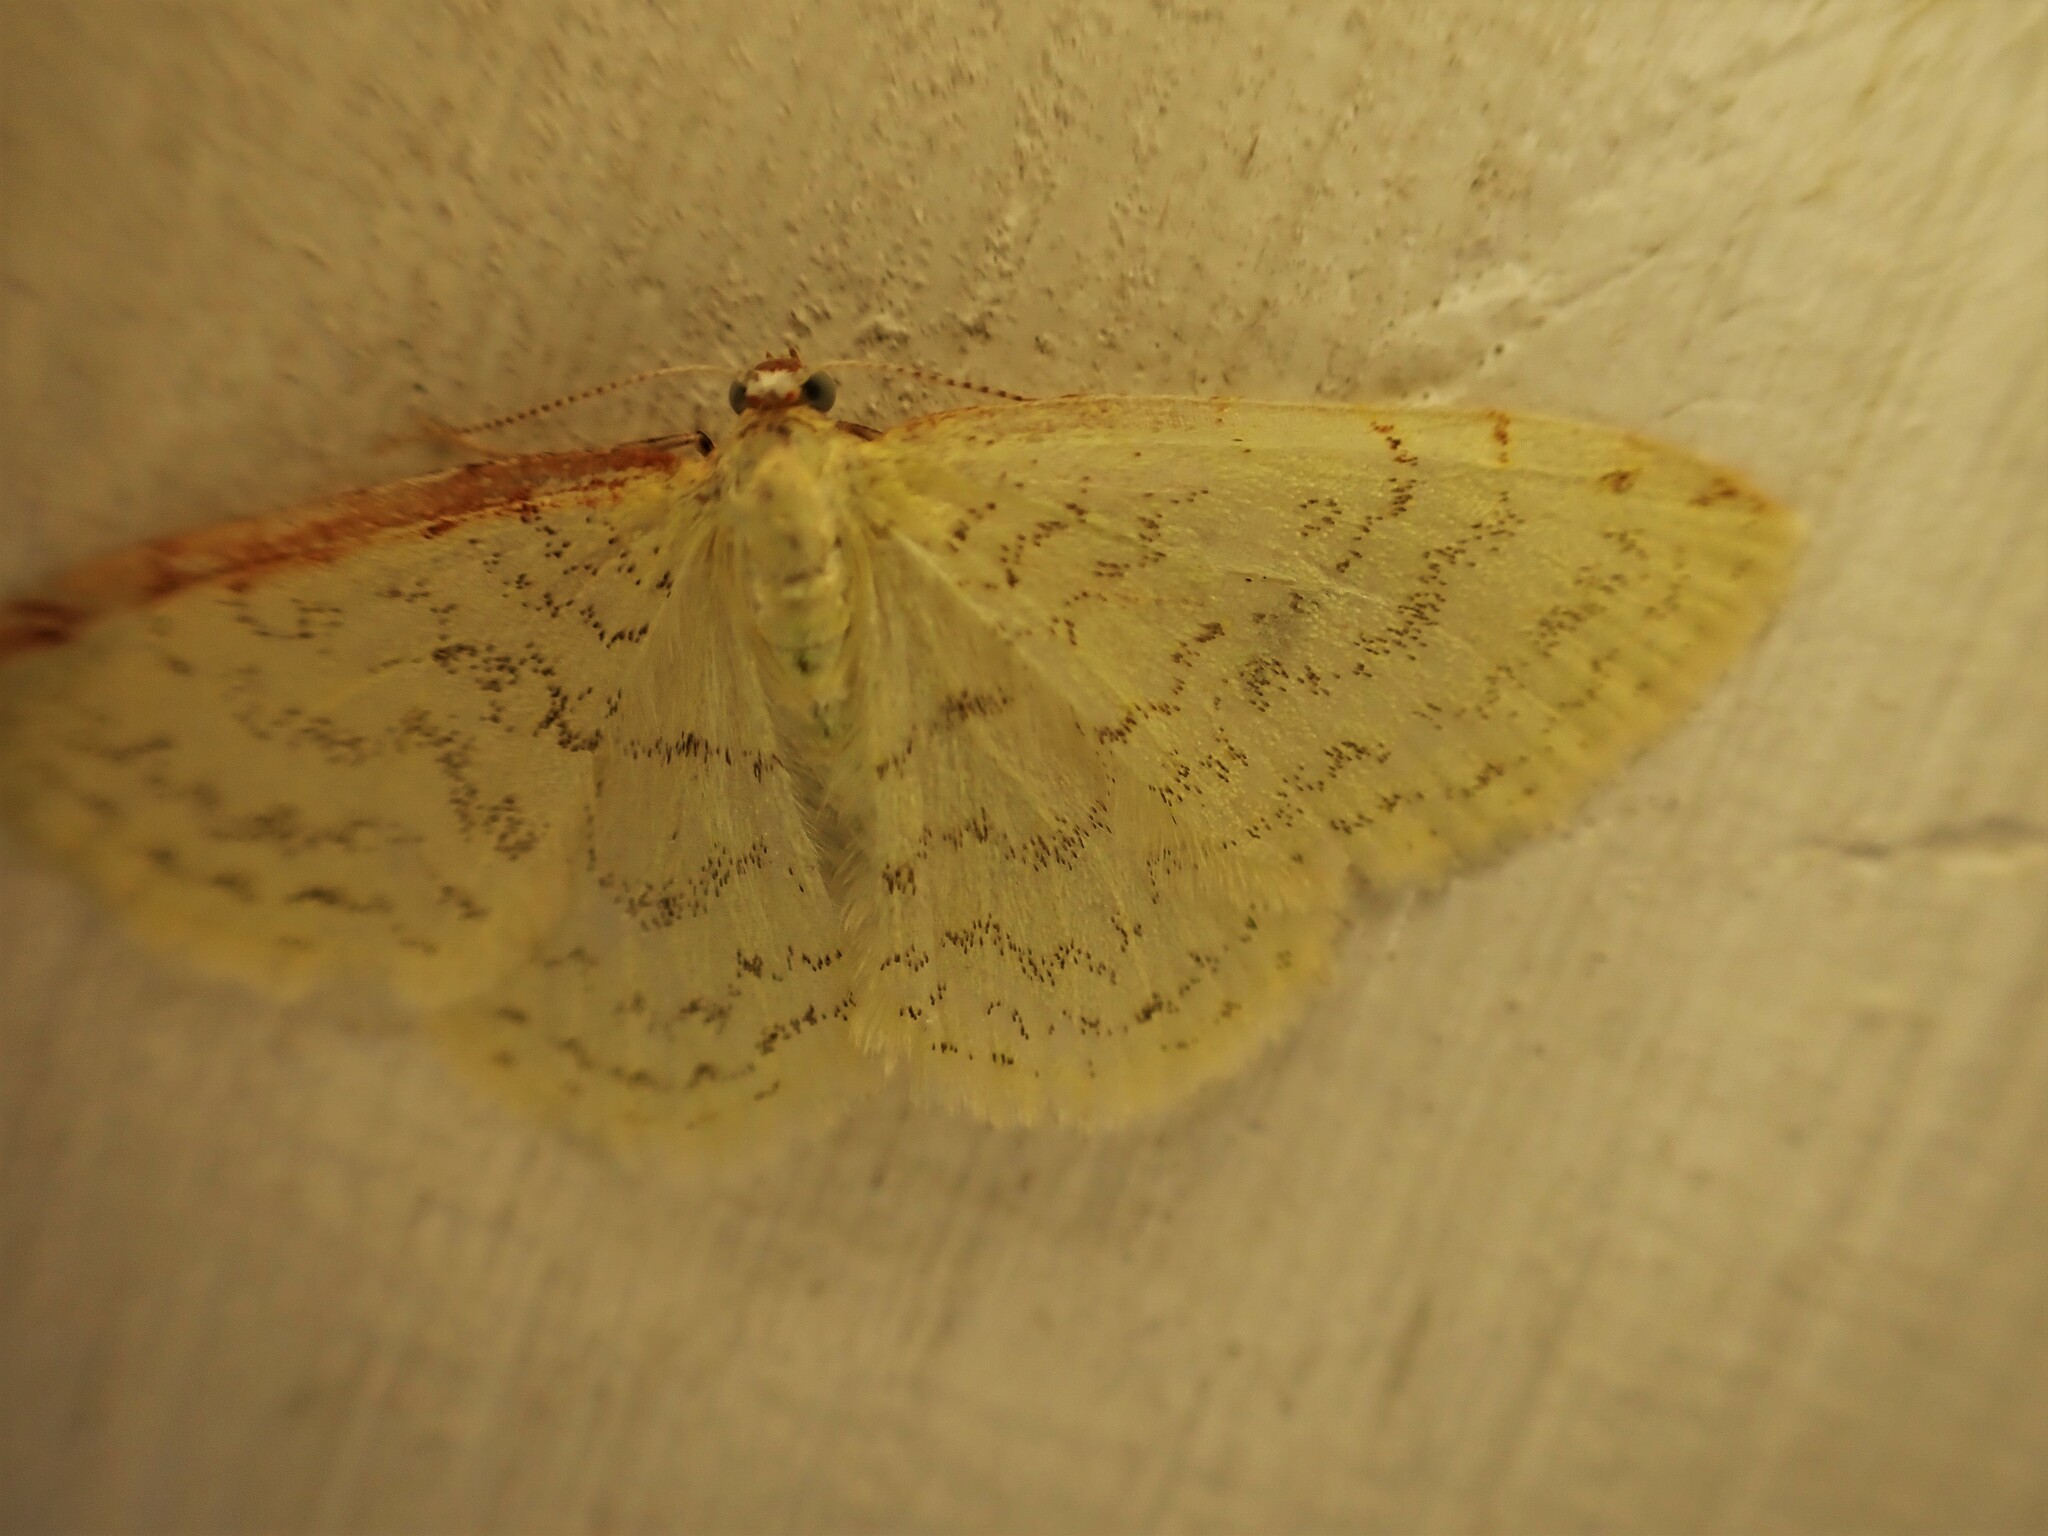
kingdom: Animalia
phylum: Arthropoda
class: Insecta
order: Lepidoptera
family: Geometridae
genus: Epiphryne
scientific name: Epiphryne undosata
